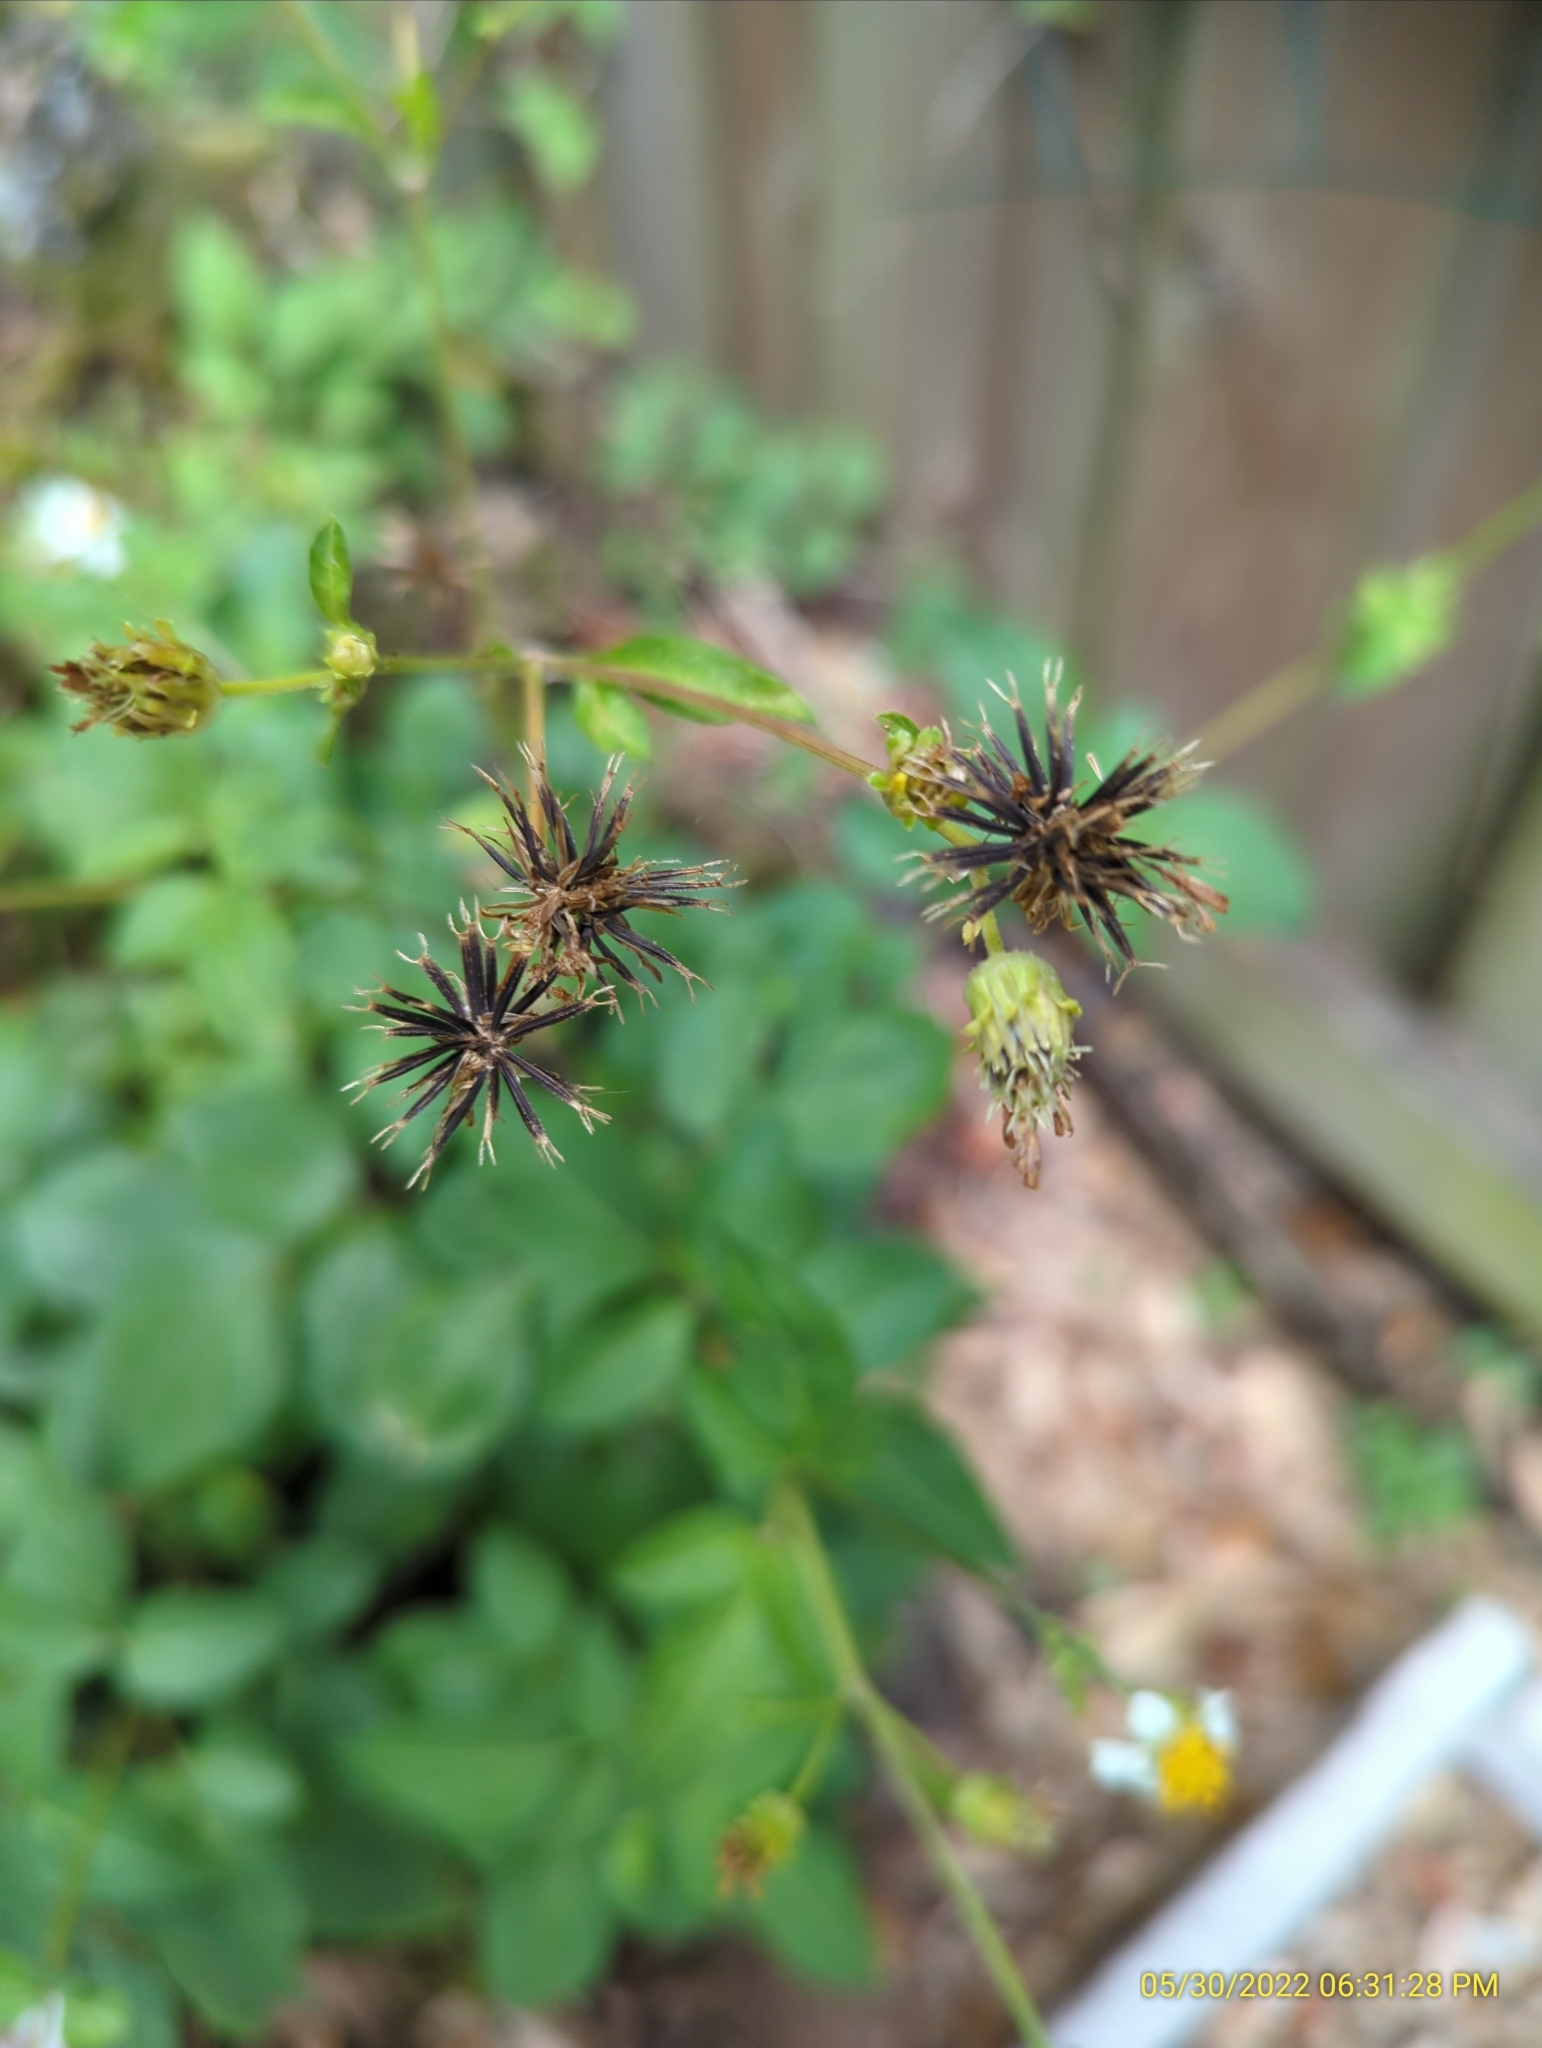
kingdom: Plantae
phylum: Tracheophyta
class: Magnoliopsida
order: Asterales
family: Asteraceae
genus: Bidens
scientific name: Bidens alba
